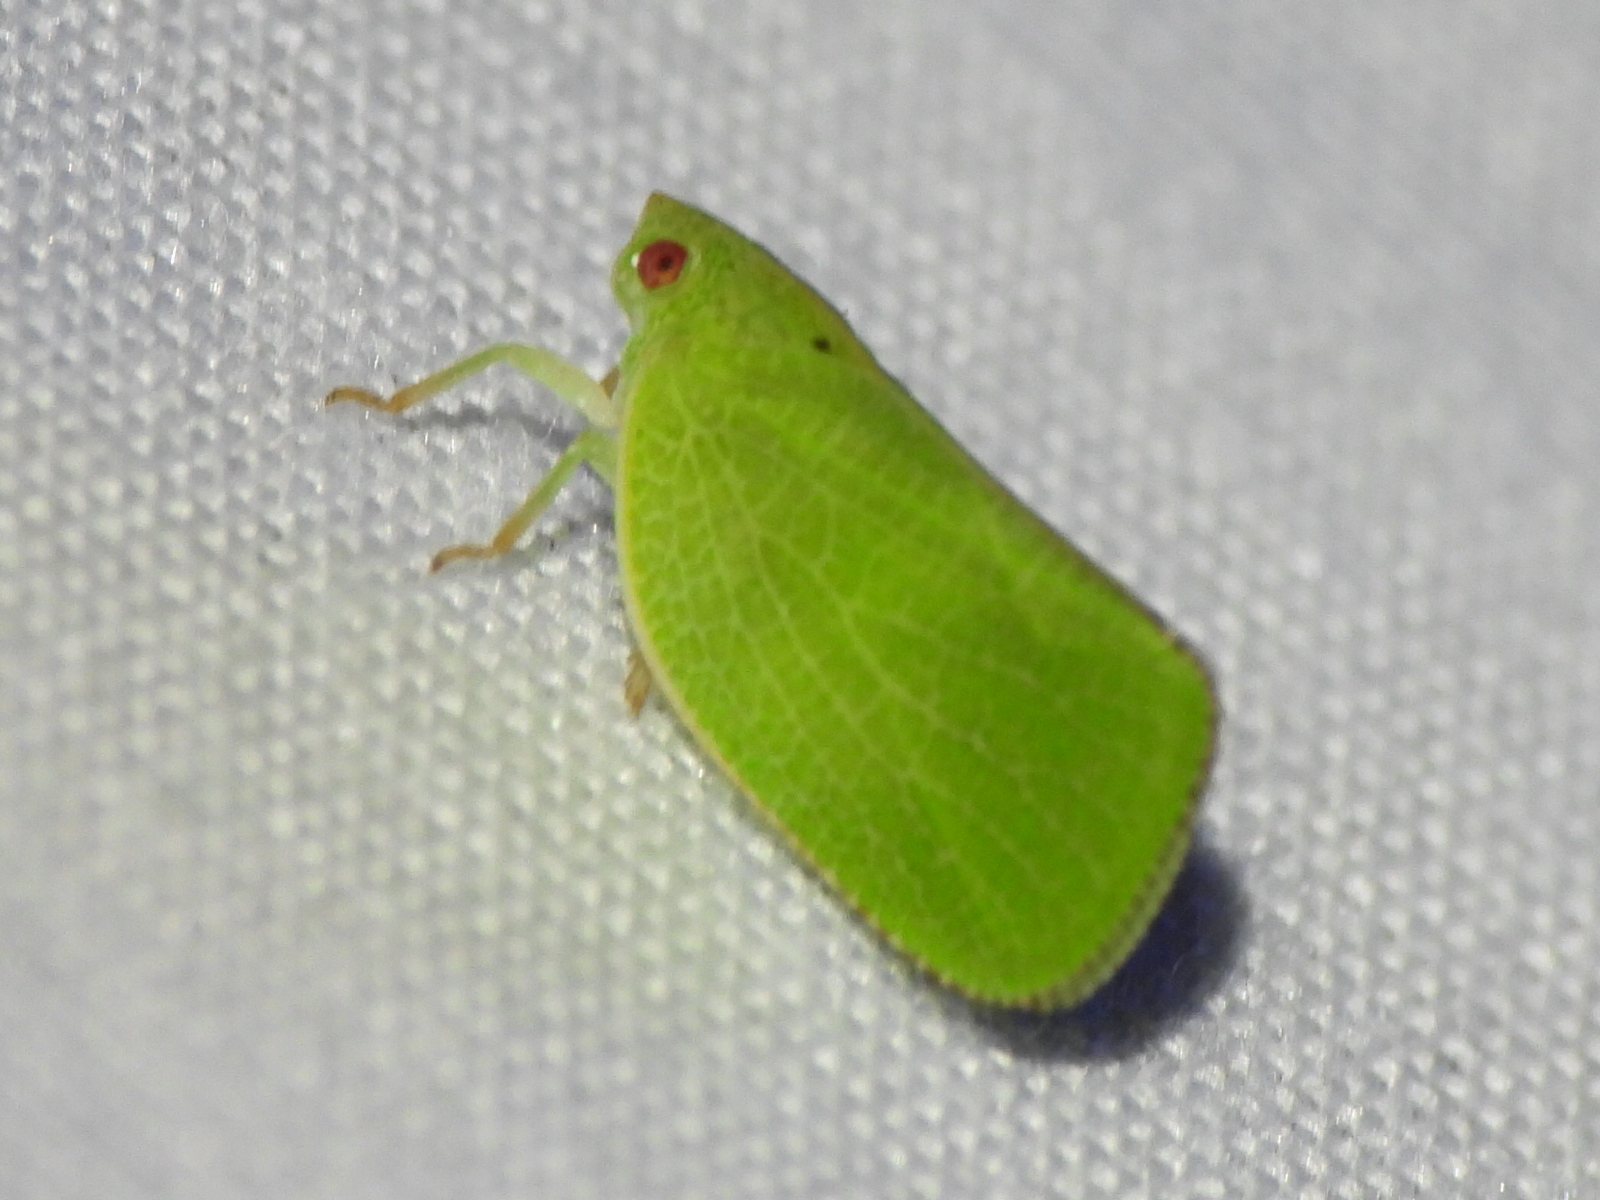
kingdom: Animalia
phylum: Arthropoda
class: Insecta
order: Hemiptera
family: Acanaloniidae
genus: Acanalonia
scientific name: Acanalonia conica
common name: Green cone-headed planthopper
